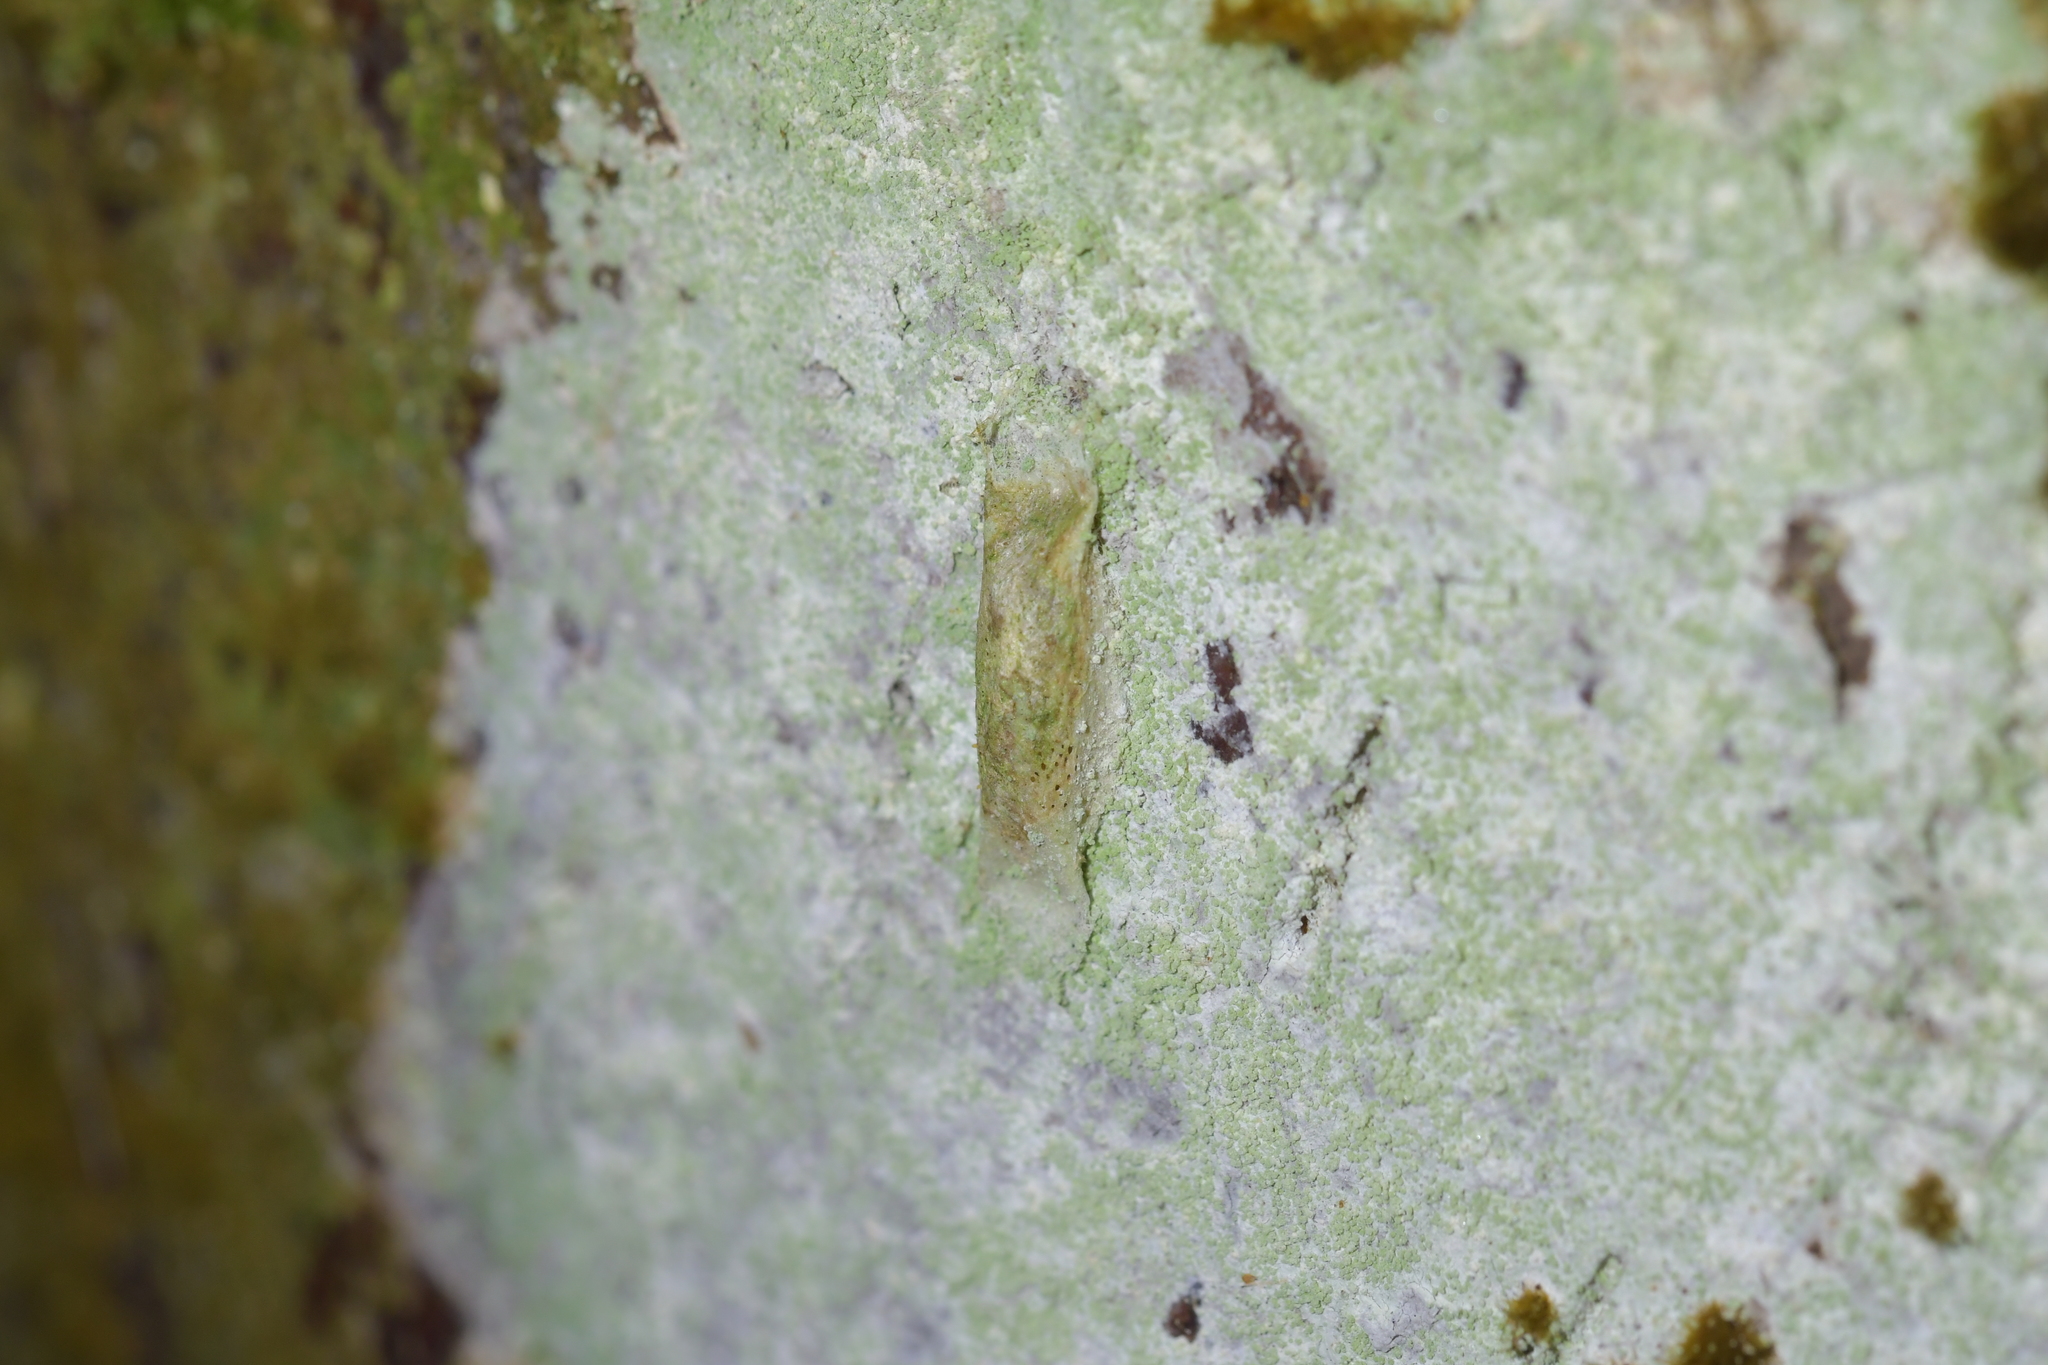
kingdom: Animalia
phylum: Arthropoda
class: Insecta
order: Lepidoptera
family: Plutellidae
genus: Doxophyrtis
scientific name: Doxophyrtis hydrocosma
